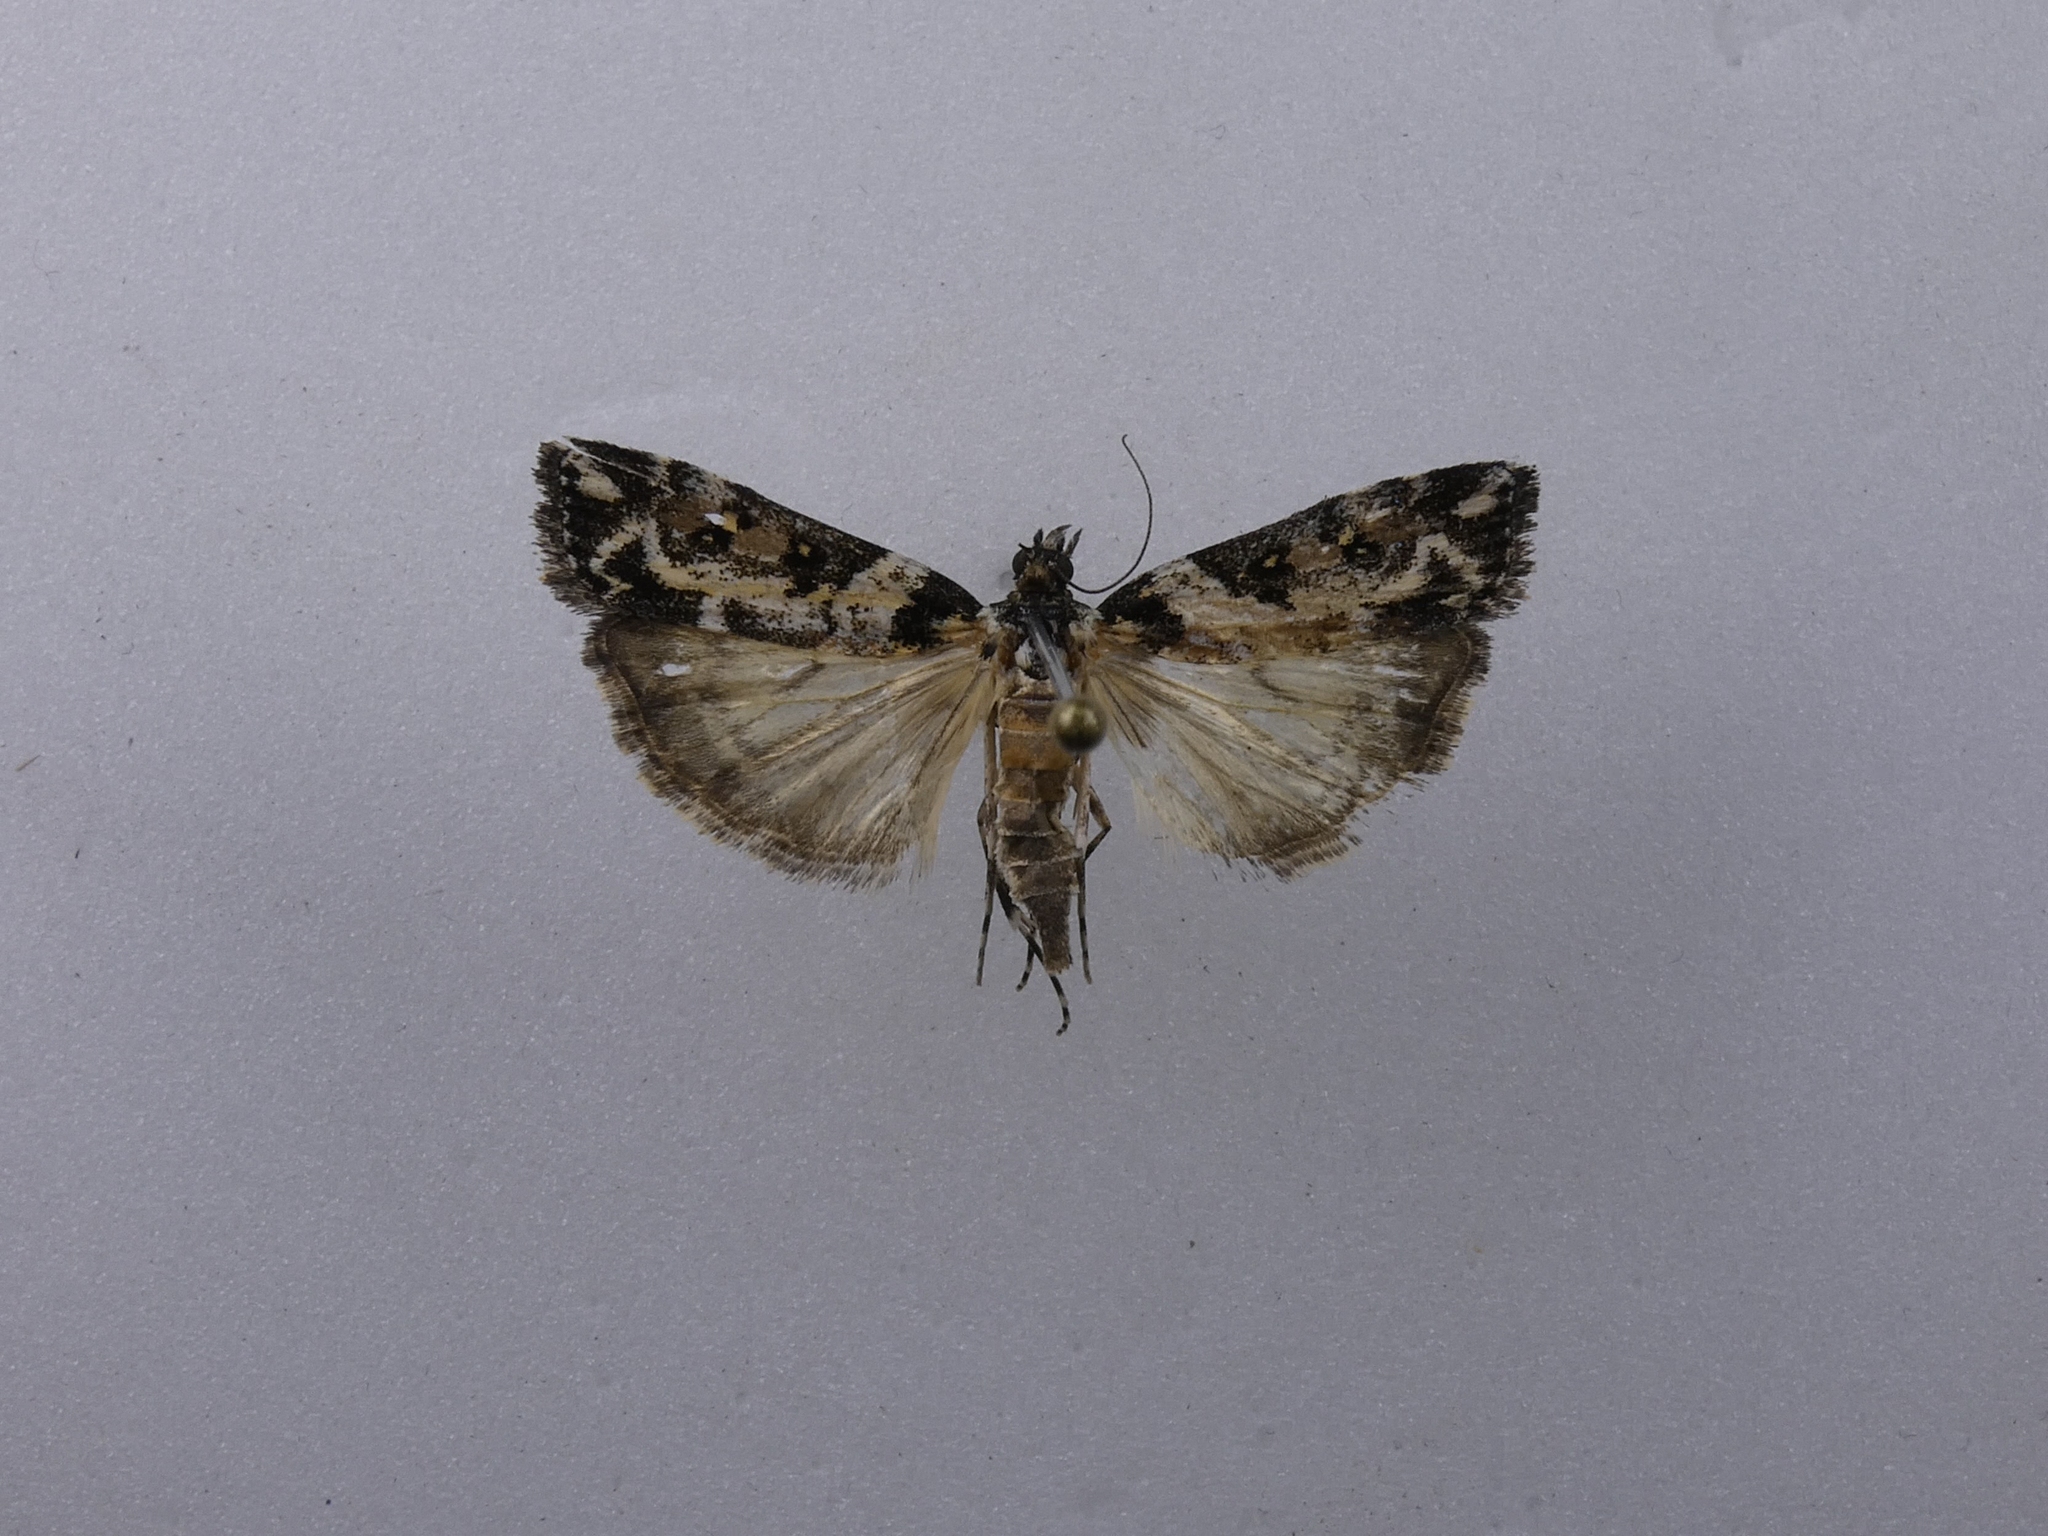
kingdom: Animalia
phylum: Arthropoda
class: Insecta
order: Lepidoptera
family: Crambidae
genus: Eudonia
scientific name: Eudonia diphtheralis
